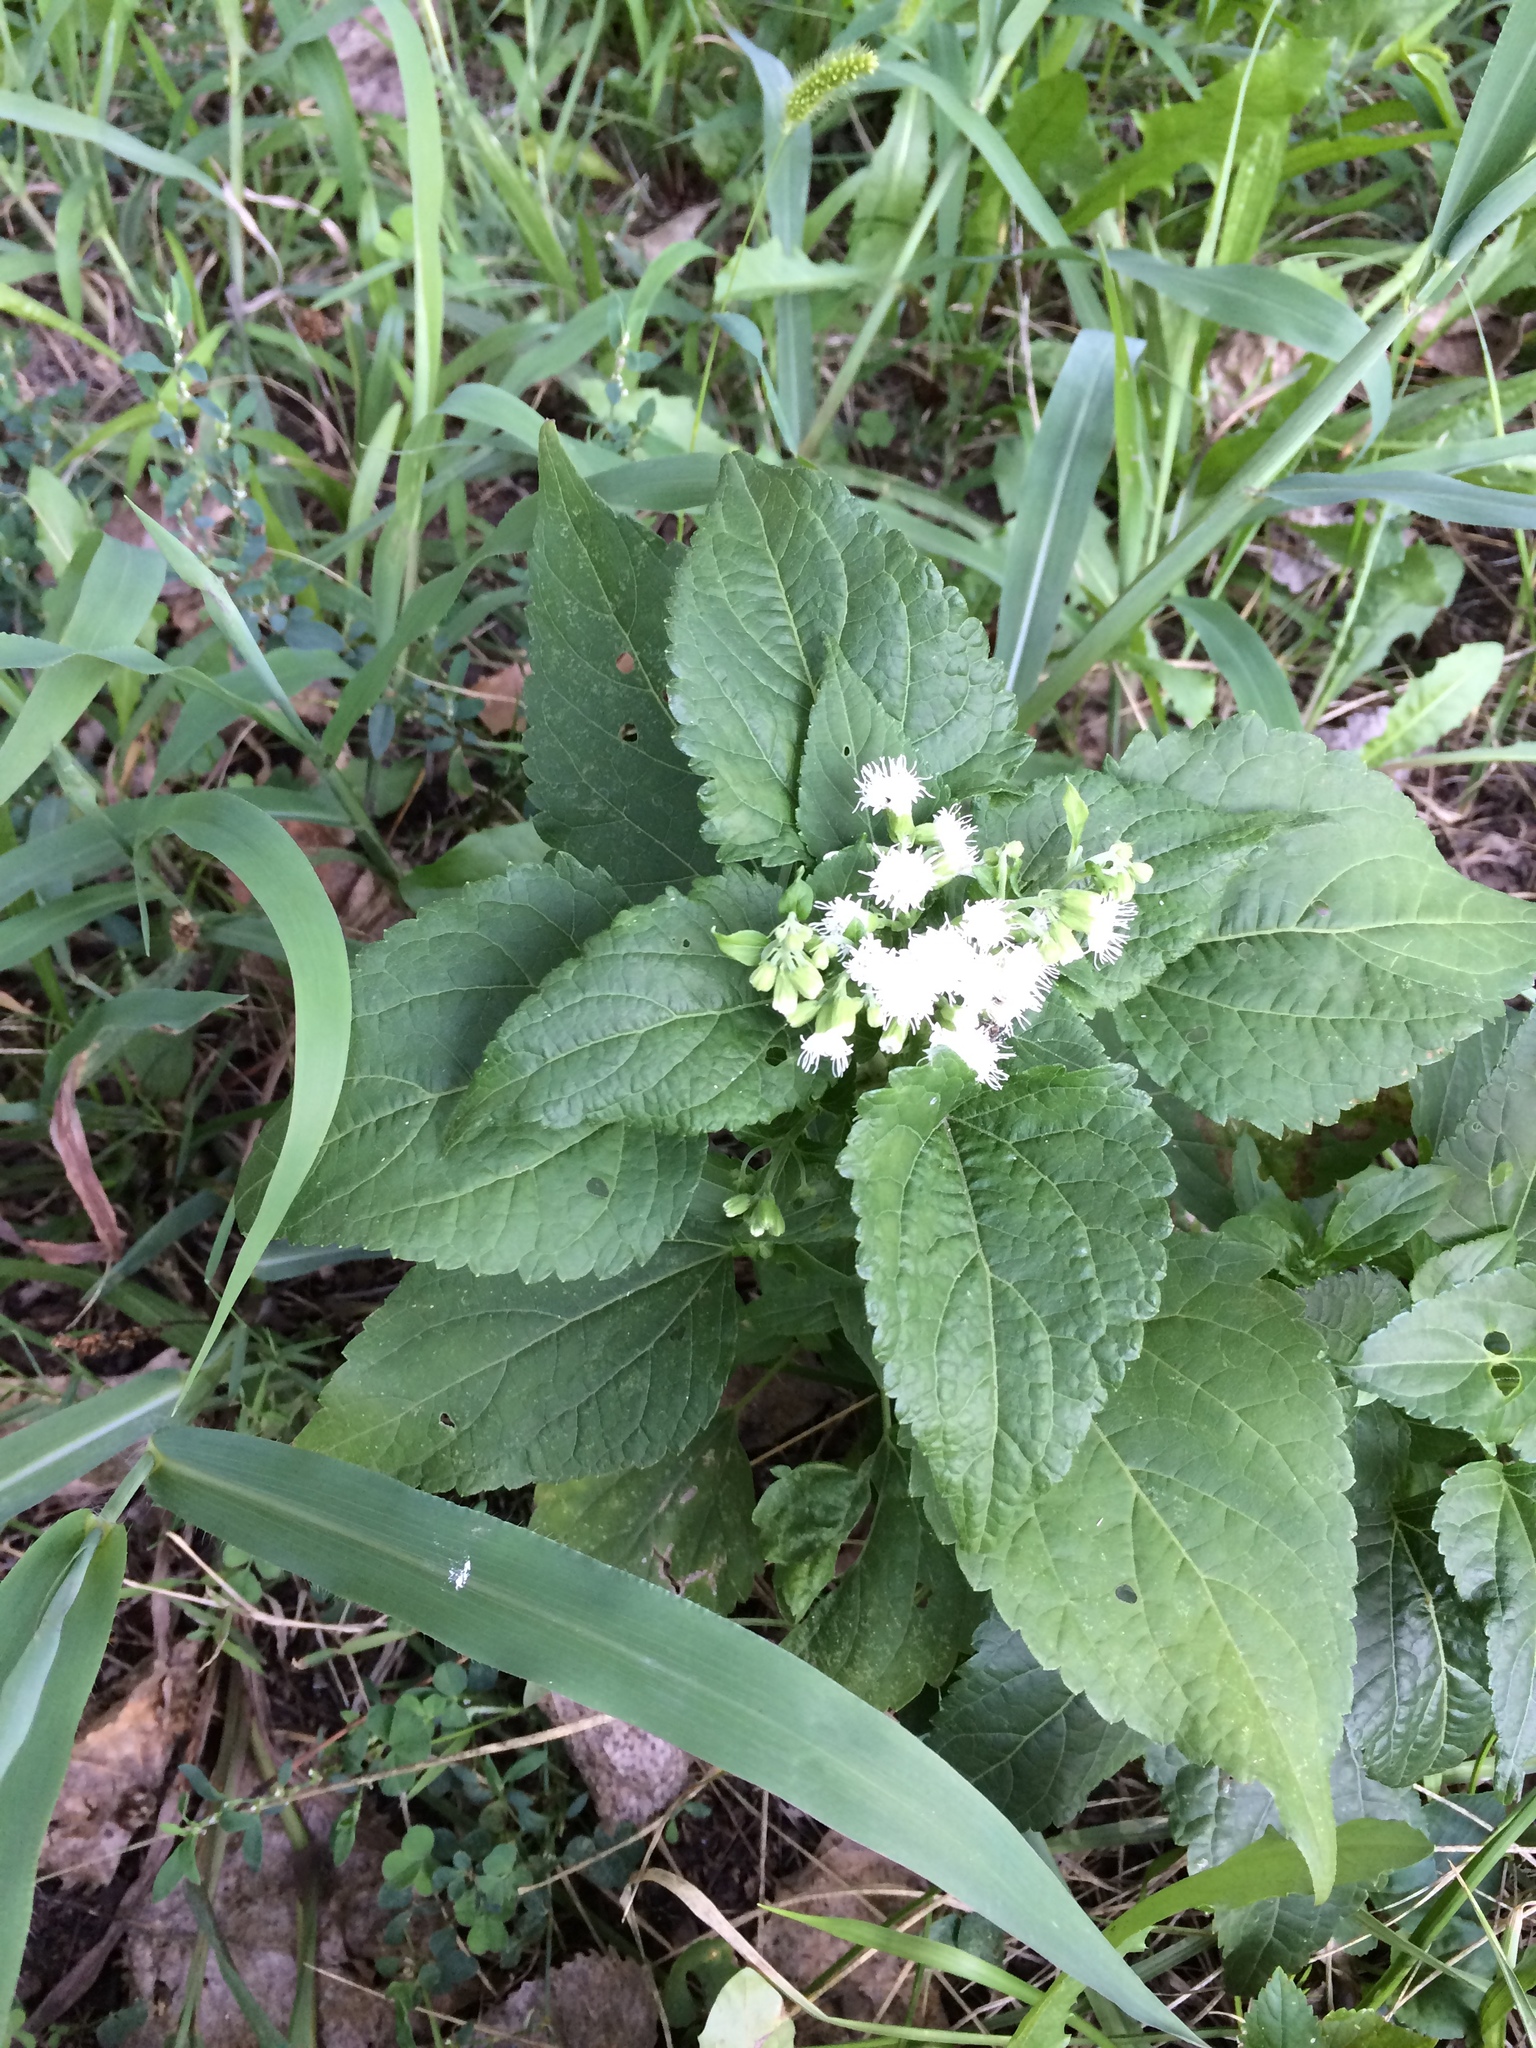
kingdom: Plantae
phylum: Tracheophyta
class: Magnoliopsida
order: Asterales
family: Asteraceae
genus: Ageratina
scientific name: Ageratina altissima
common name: White snakeroot
